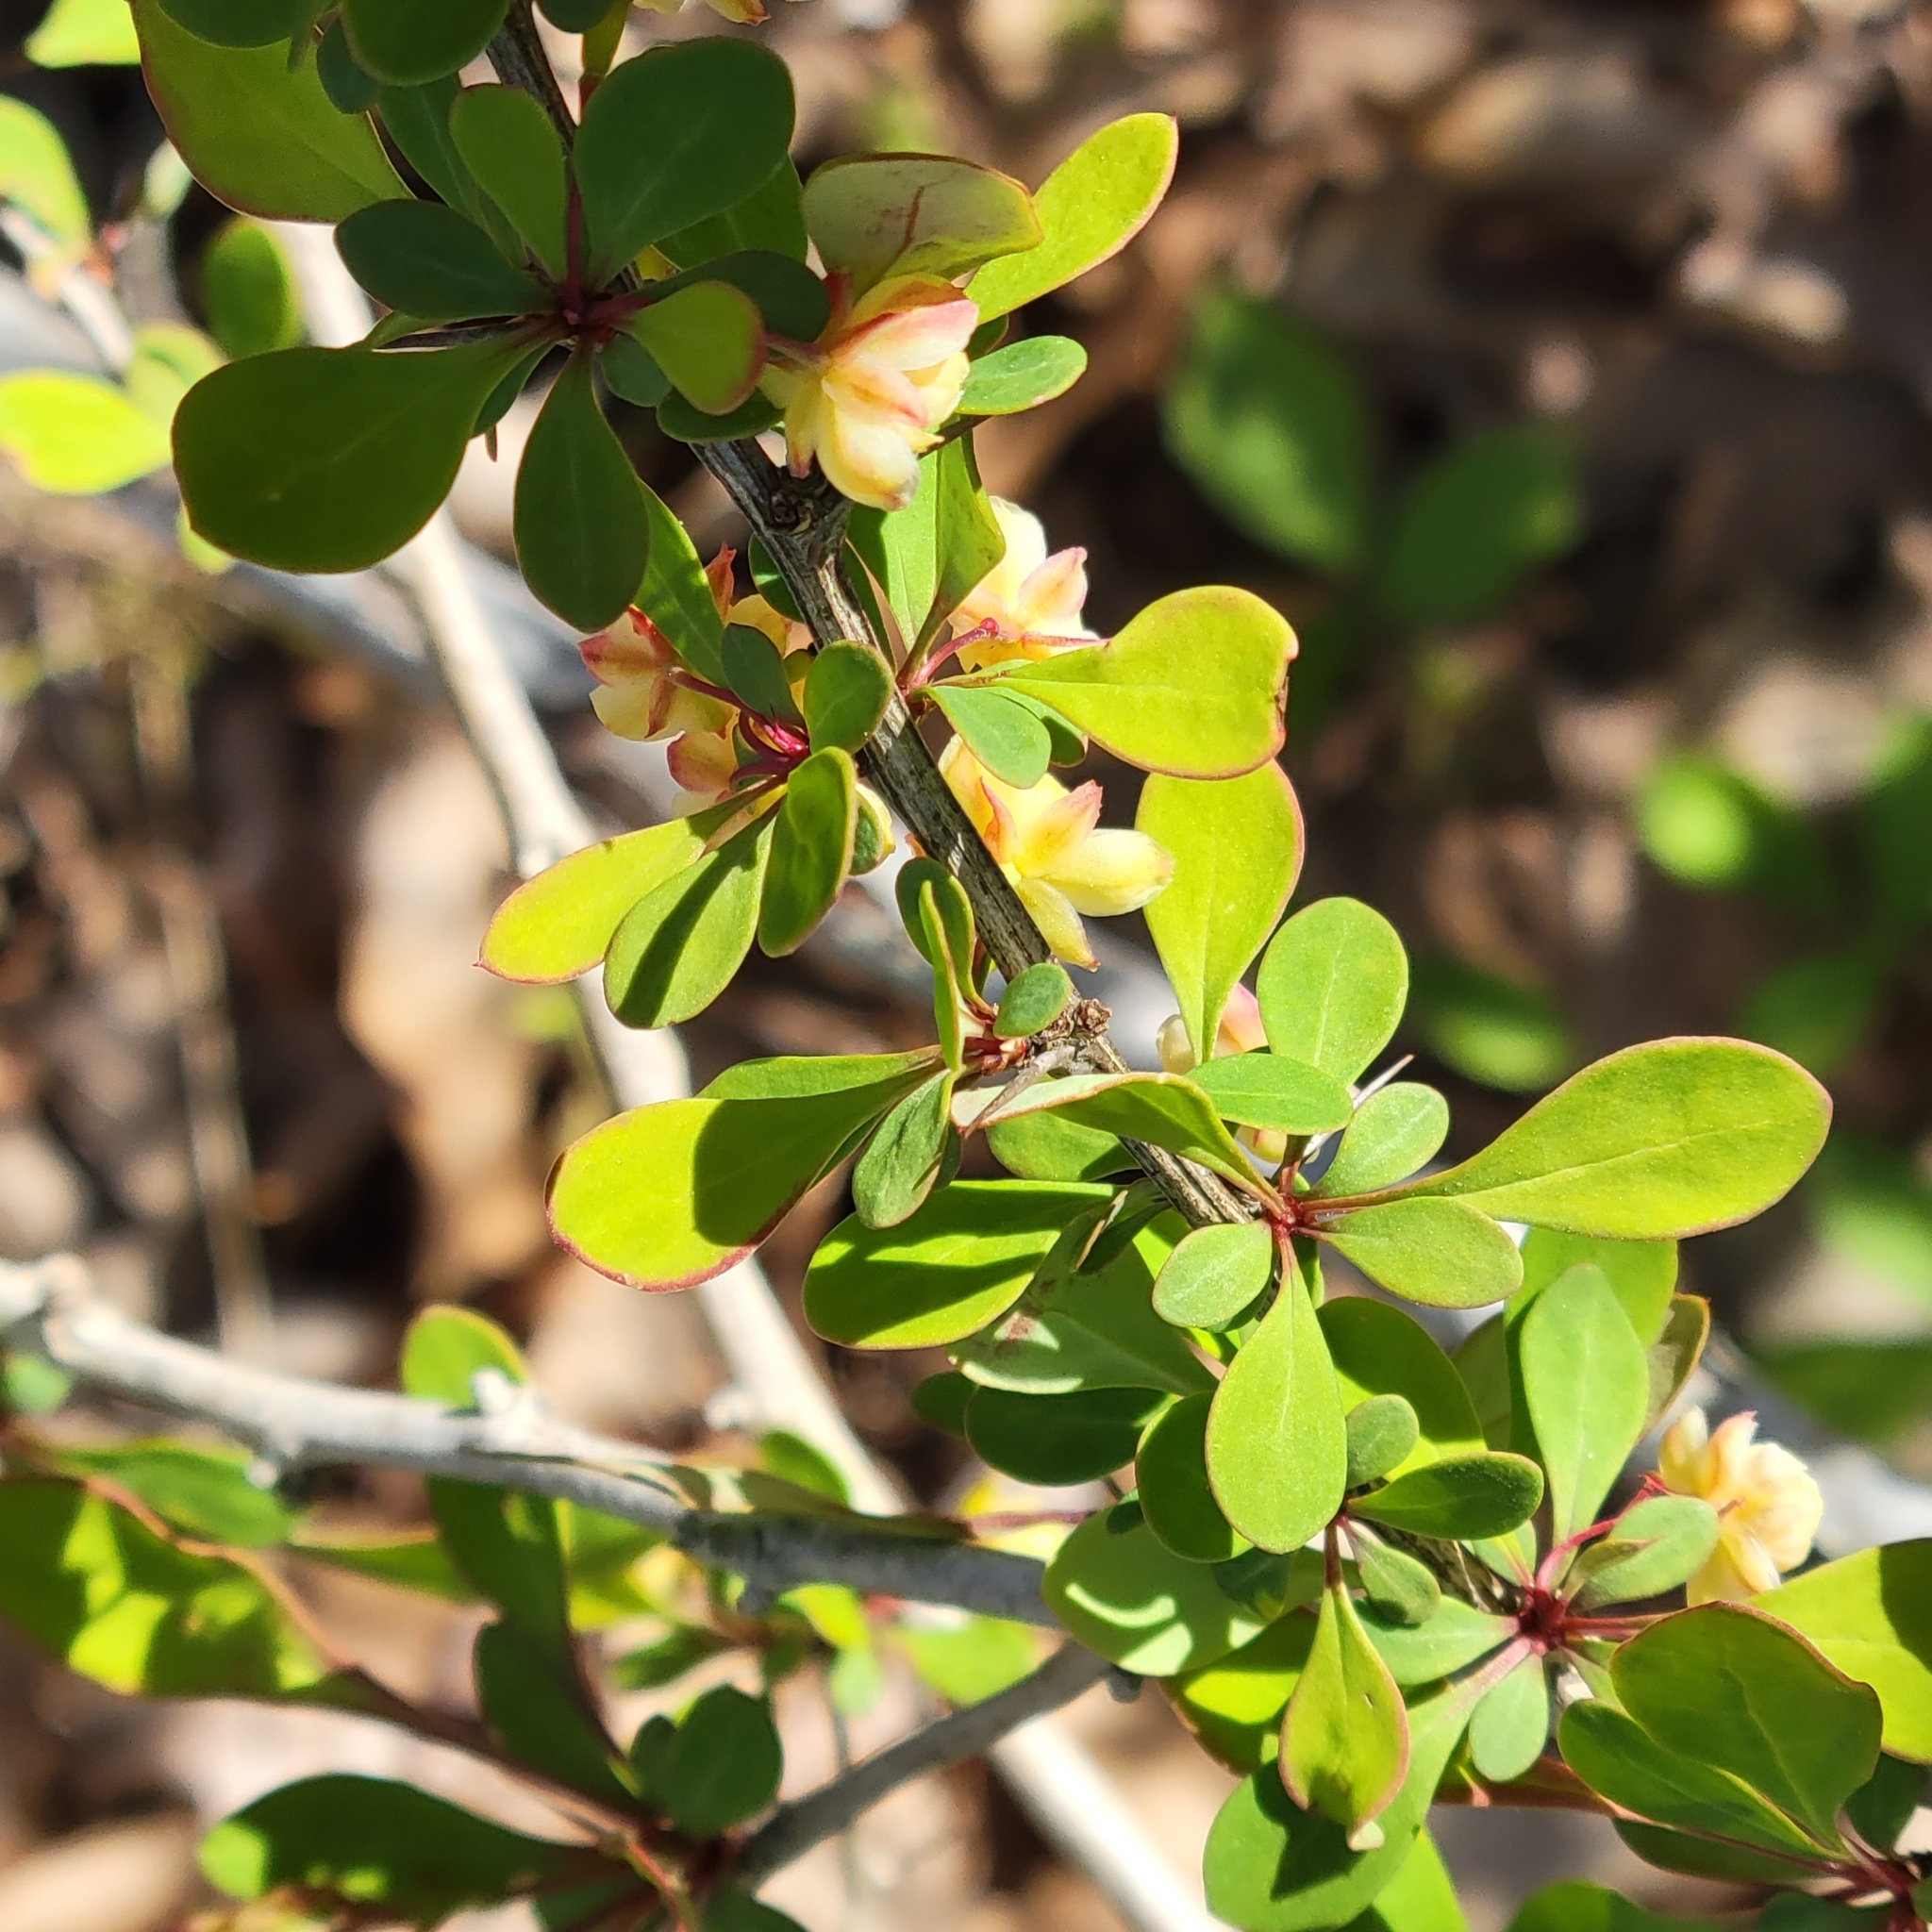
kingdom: Plantae
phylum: Tracheophyta
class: Magnoliopsida
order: Ranunculales
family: Berberidaceae
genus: Berberis
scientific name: Berberis thunbergii
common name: Japanese barberry
